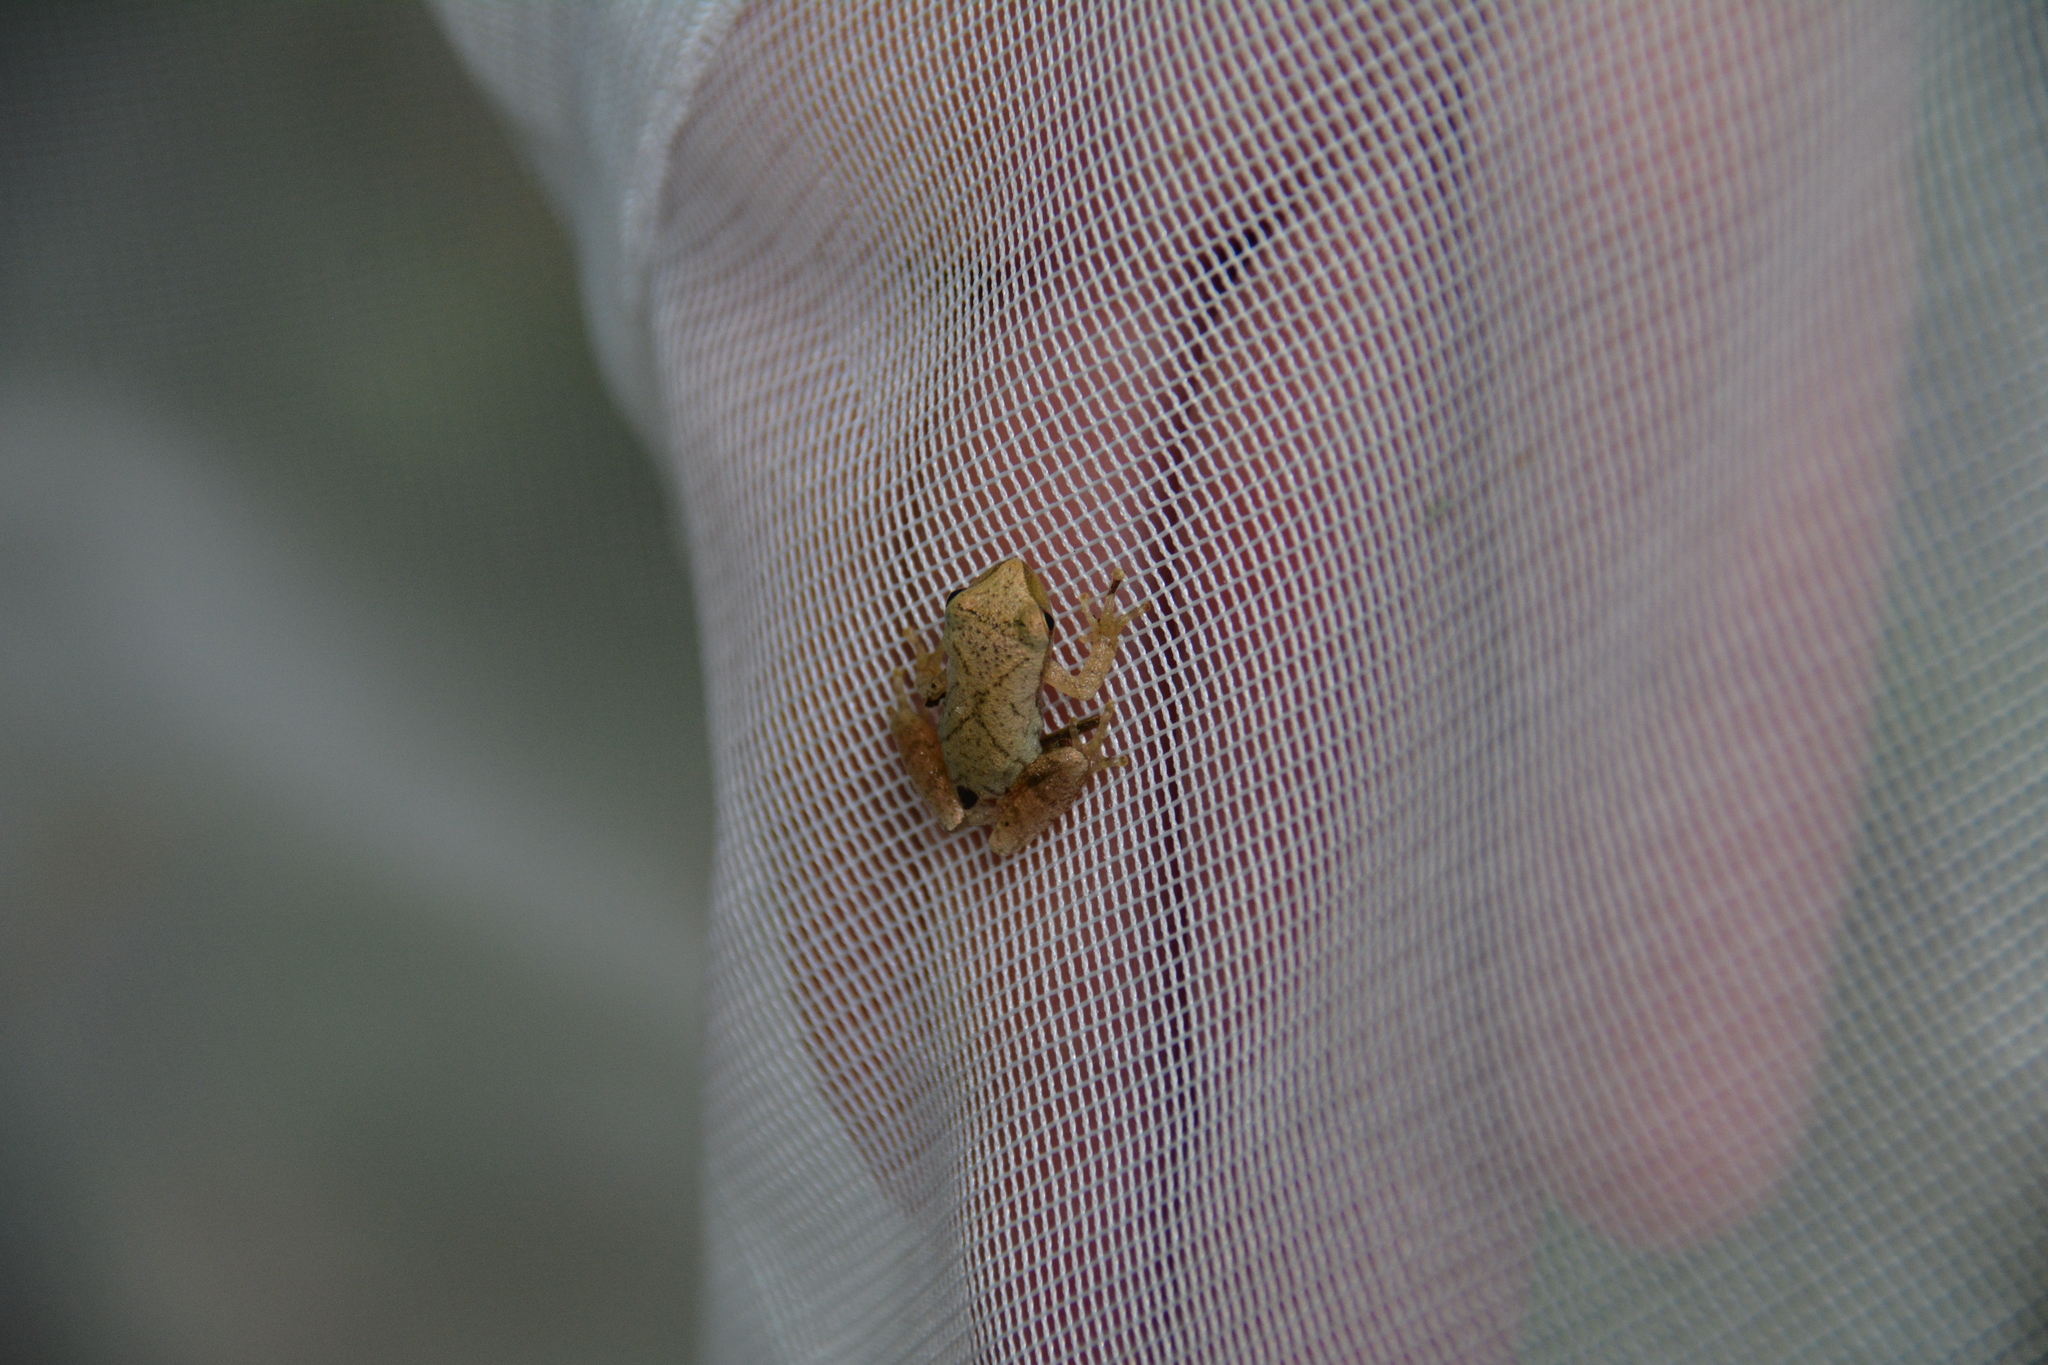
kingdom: Animalia
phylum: Chordata
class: Amphibia
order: Anura
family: Hylidae
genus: Pseudacris
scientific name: Pseudacris crucifer
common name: Spring peeper
